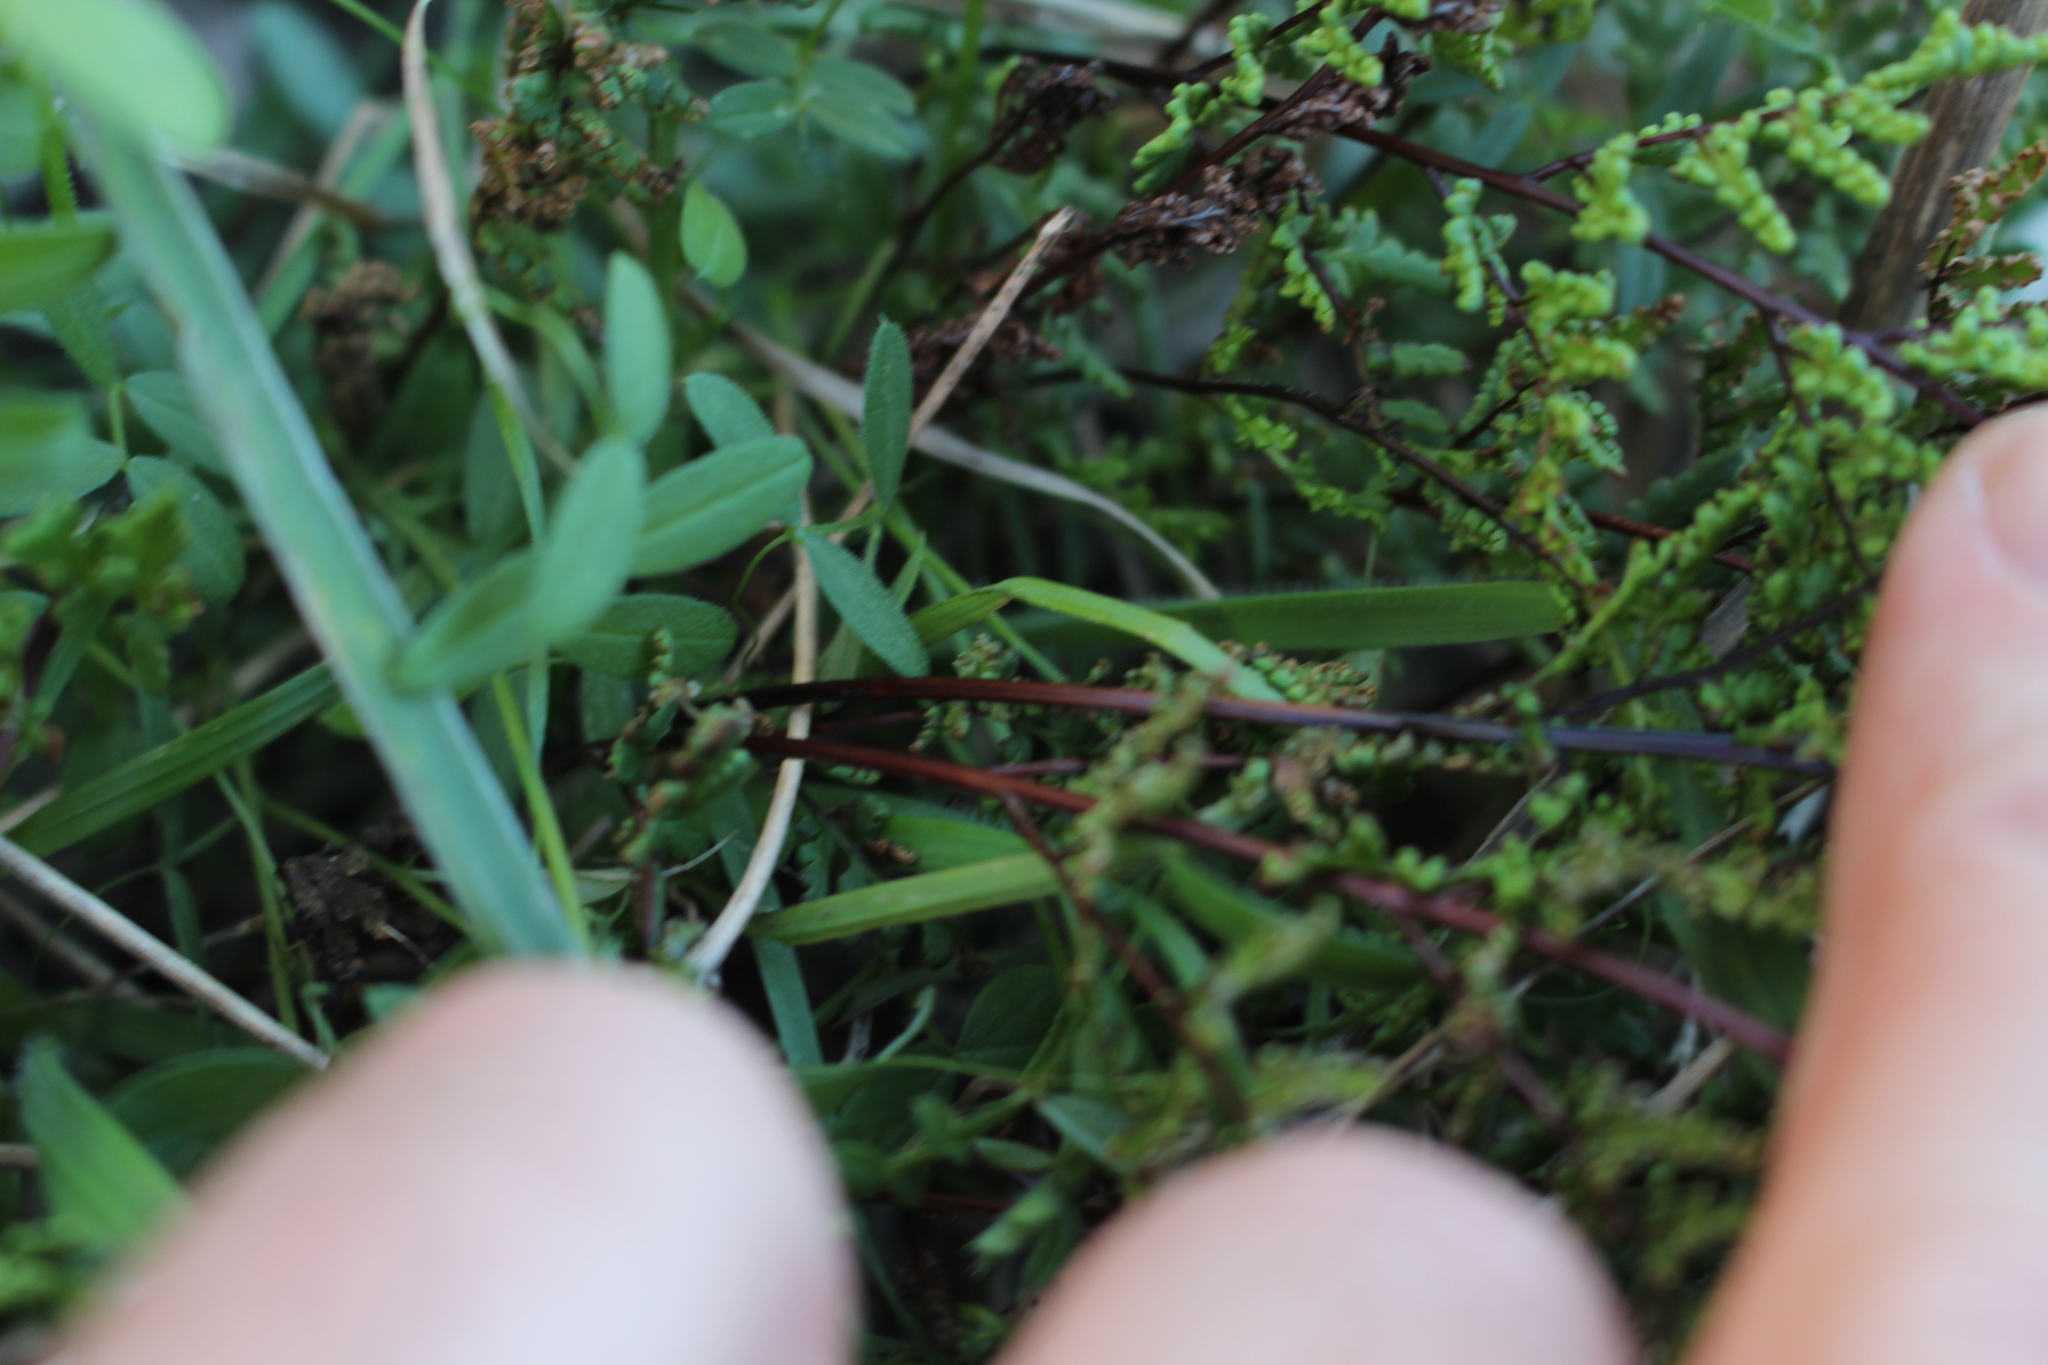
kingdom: Plantae
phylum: Tracheophyta
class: Polypodiopsida
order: Polypodiales
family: Pteridaceae
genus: Cheilanthes
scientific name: Cheilanthes sieberi
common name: Mulga fern
